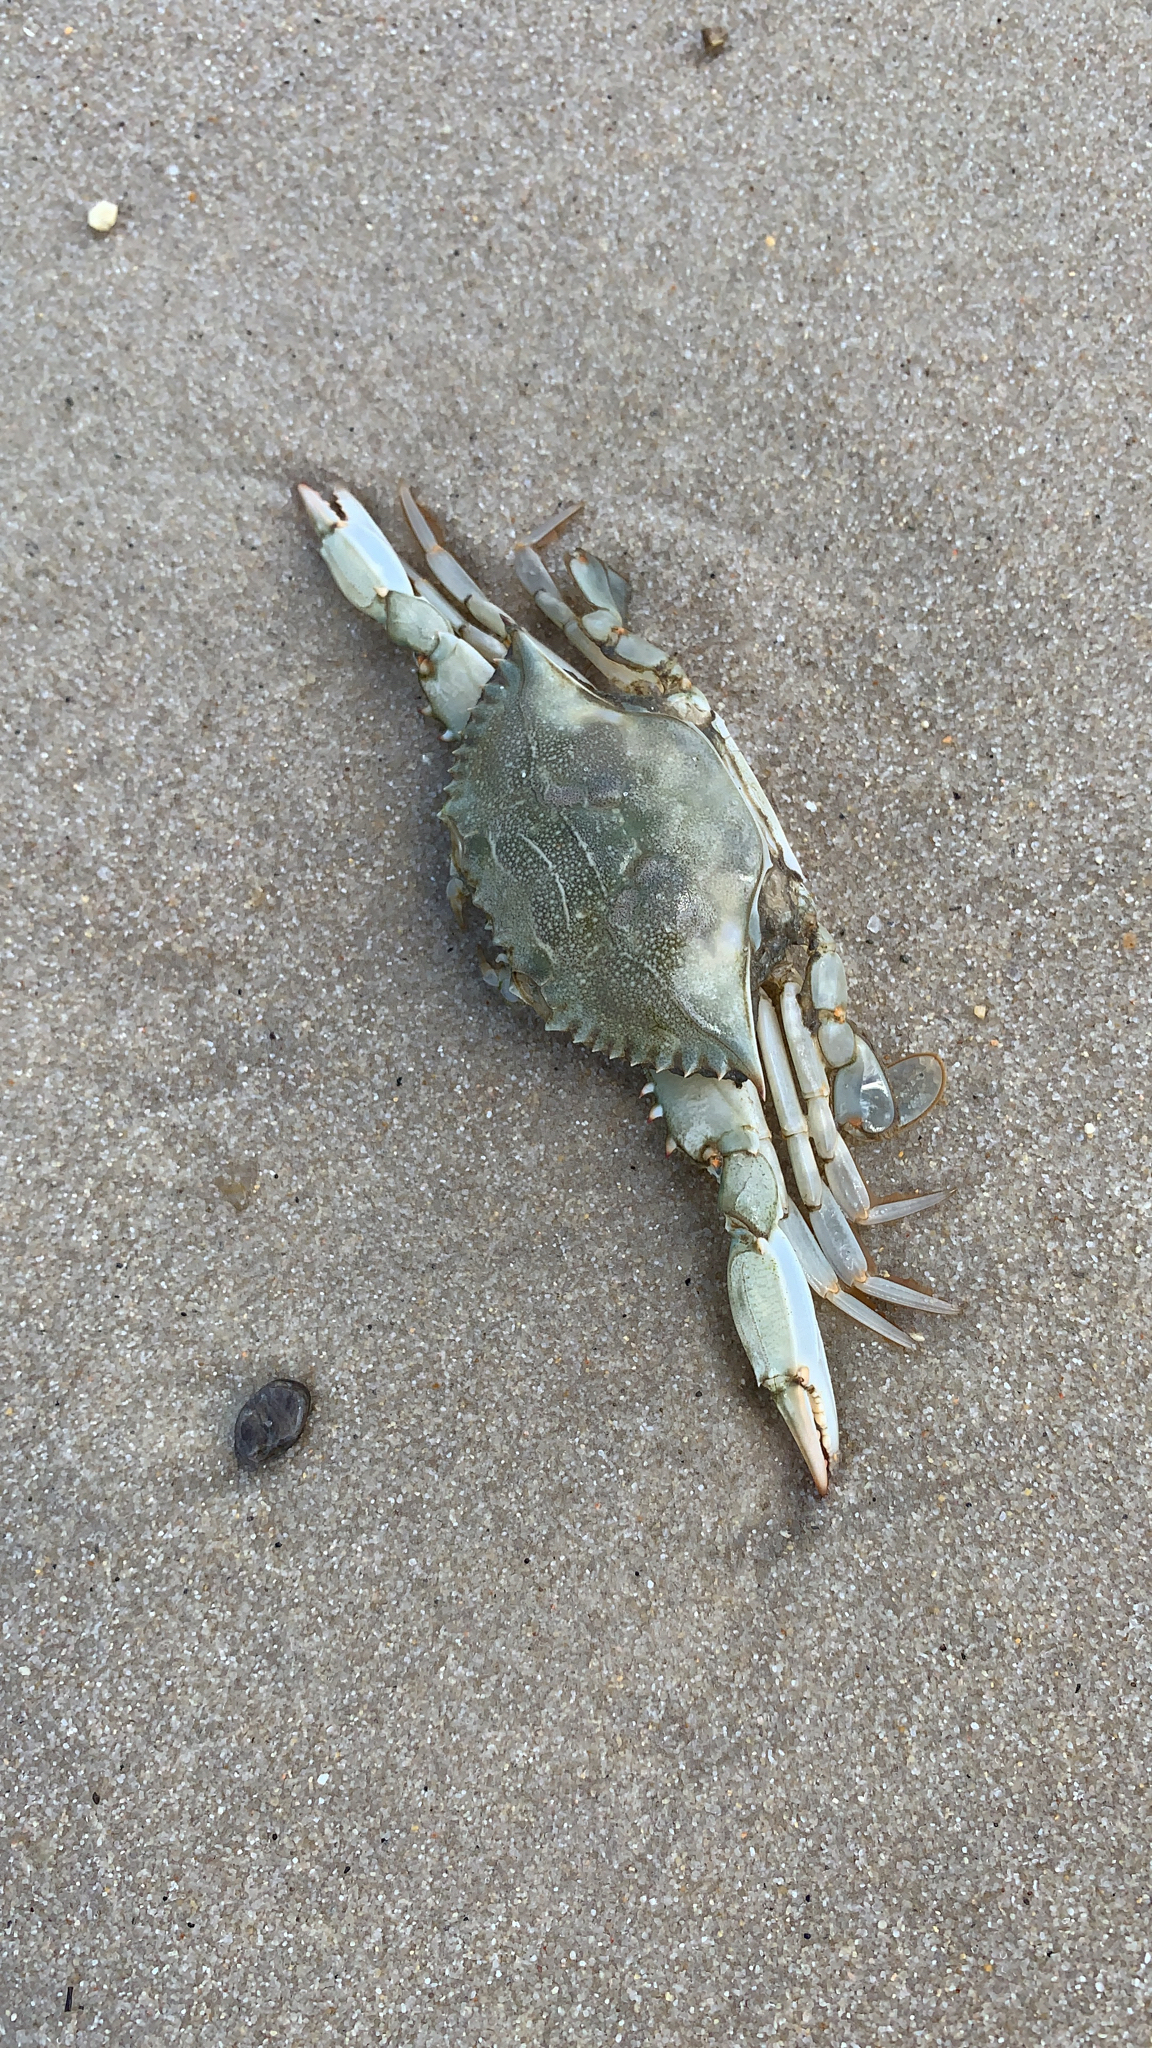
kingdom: Animalia
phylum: Arthropoda
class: Malacostraca
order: Decapoda
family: Portunidae
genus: Callinectes
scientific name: Callinectes sapidus
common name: Blue crab
